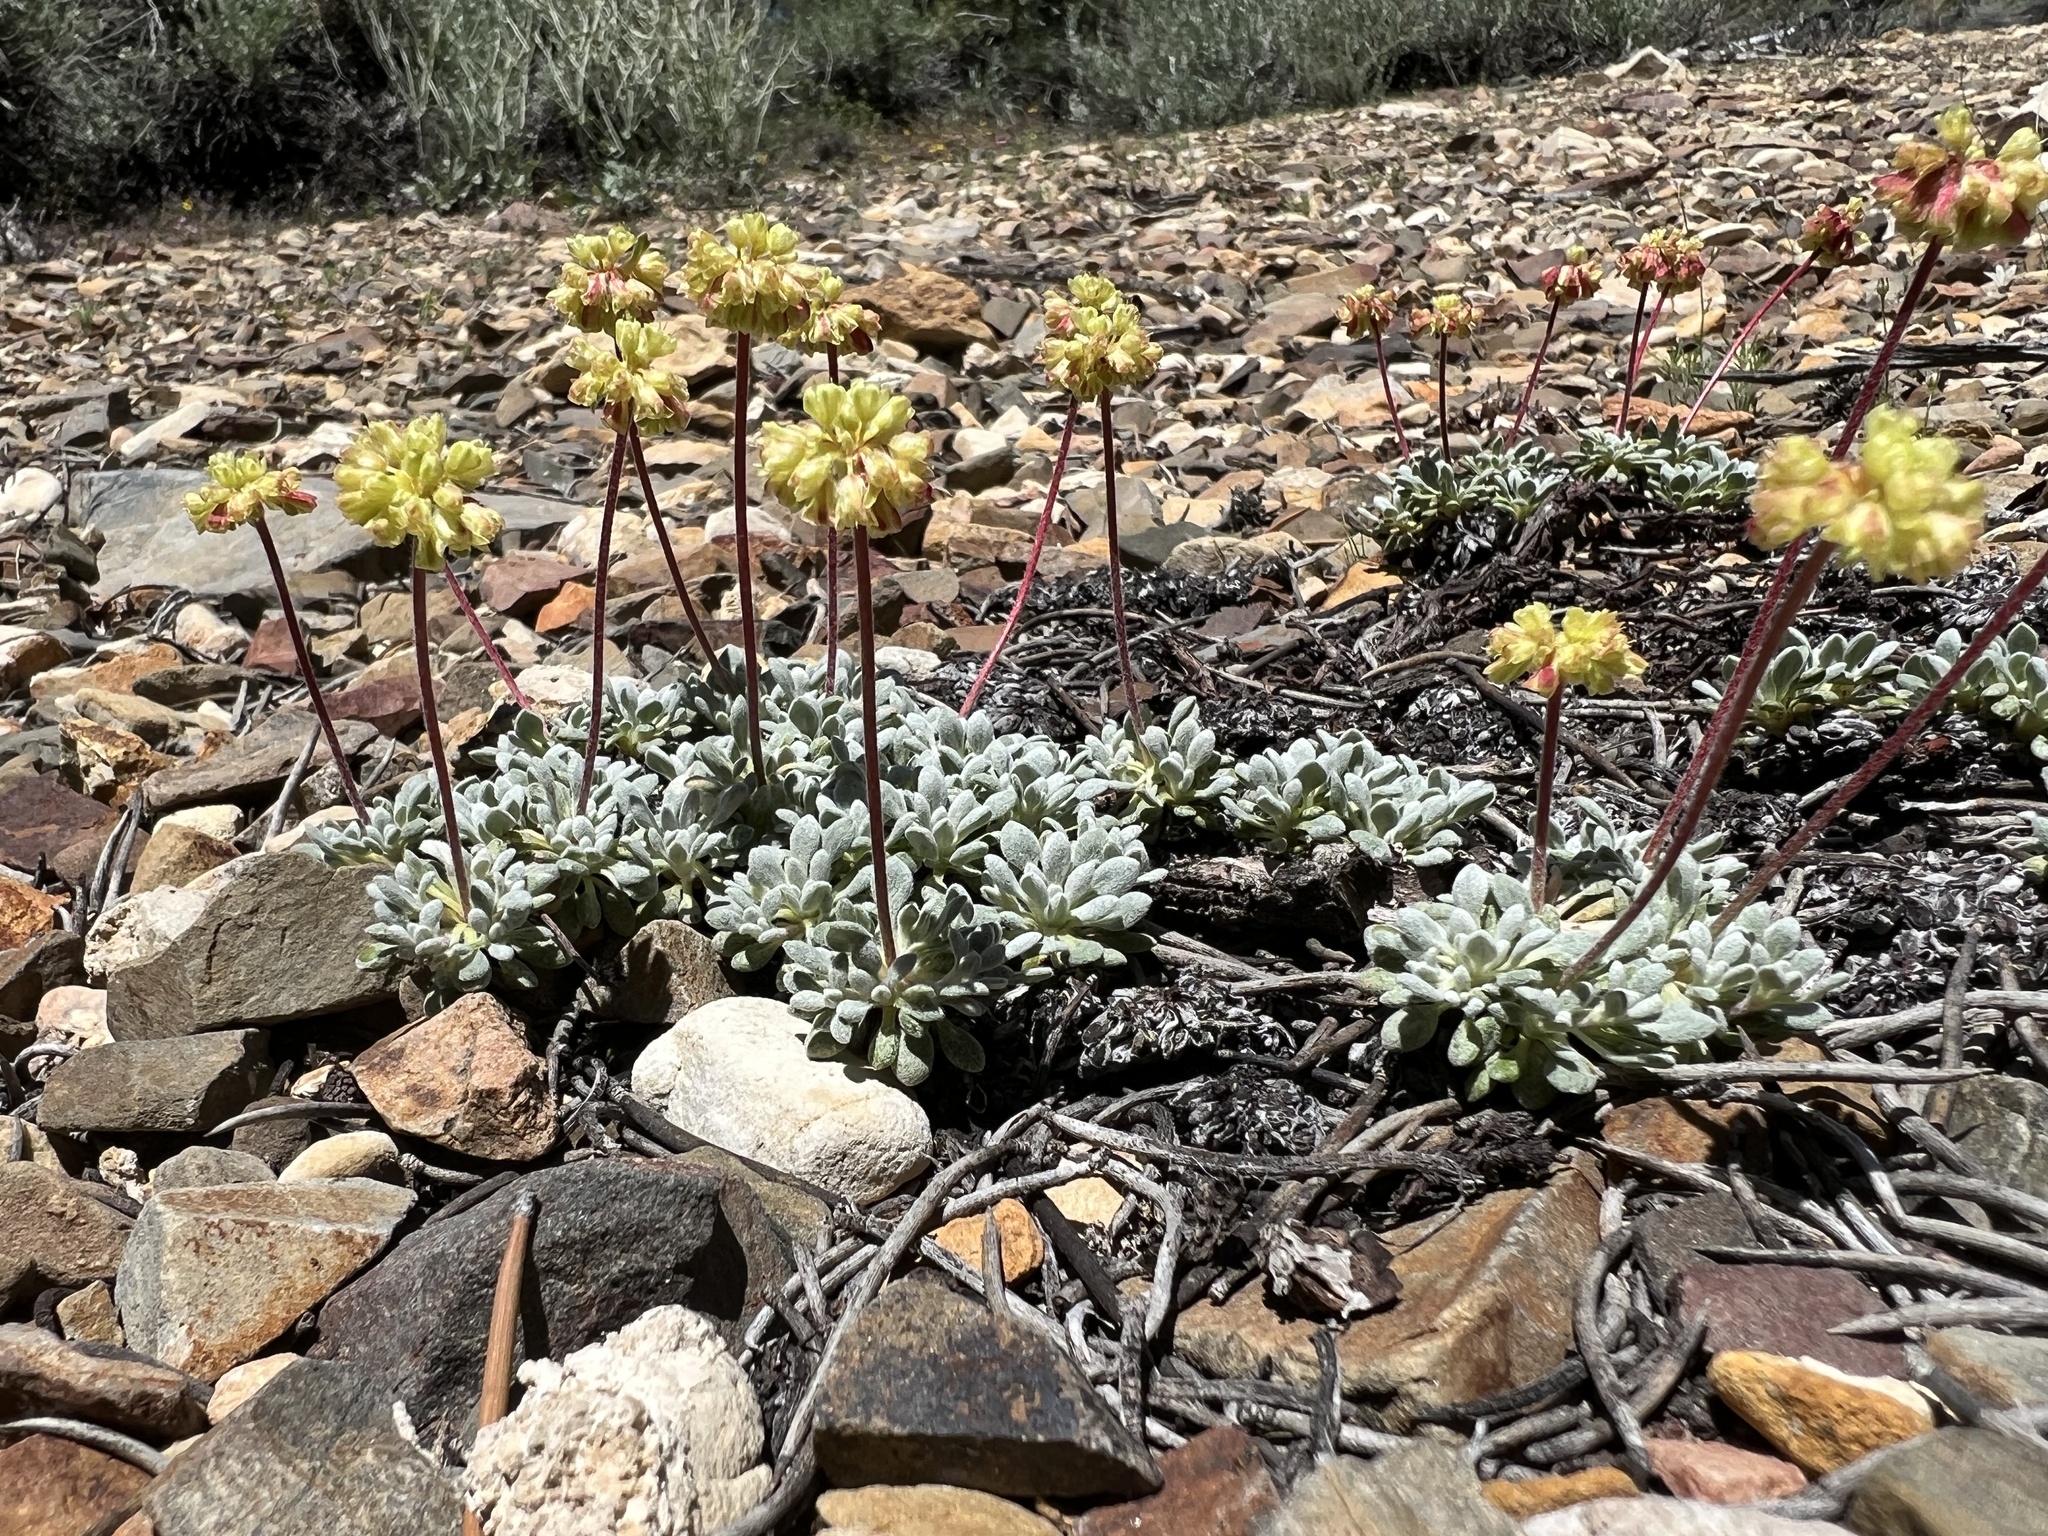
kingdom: Plantae
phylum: Tracheophyta
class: Magnoliopsida
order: Caryophyllales
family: Polygonaceae
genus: Eriogonum
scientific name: Eriogonum caespitosum
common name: Matted wild buckwheat
